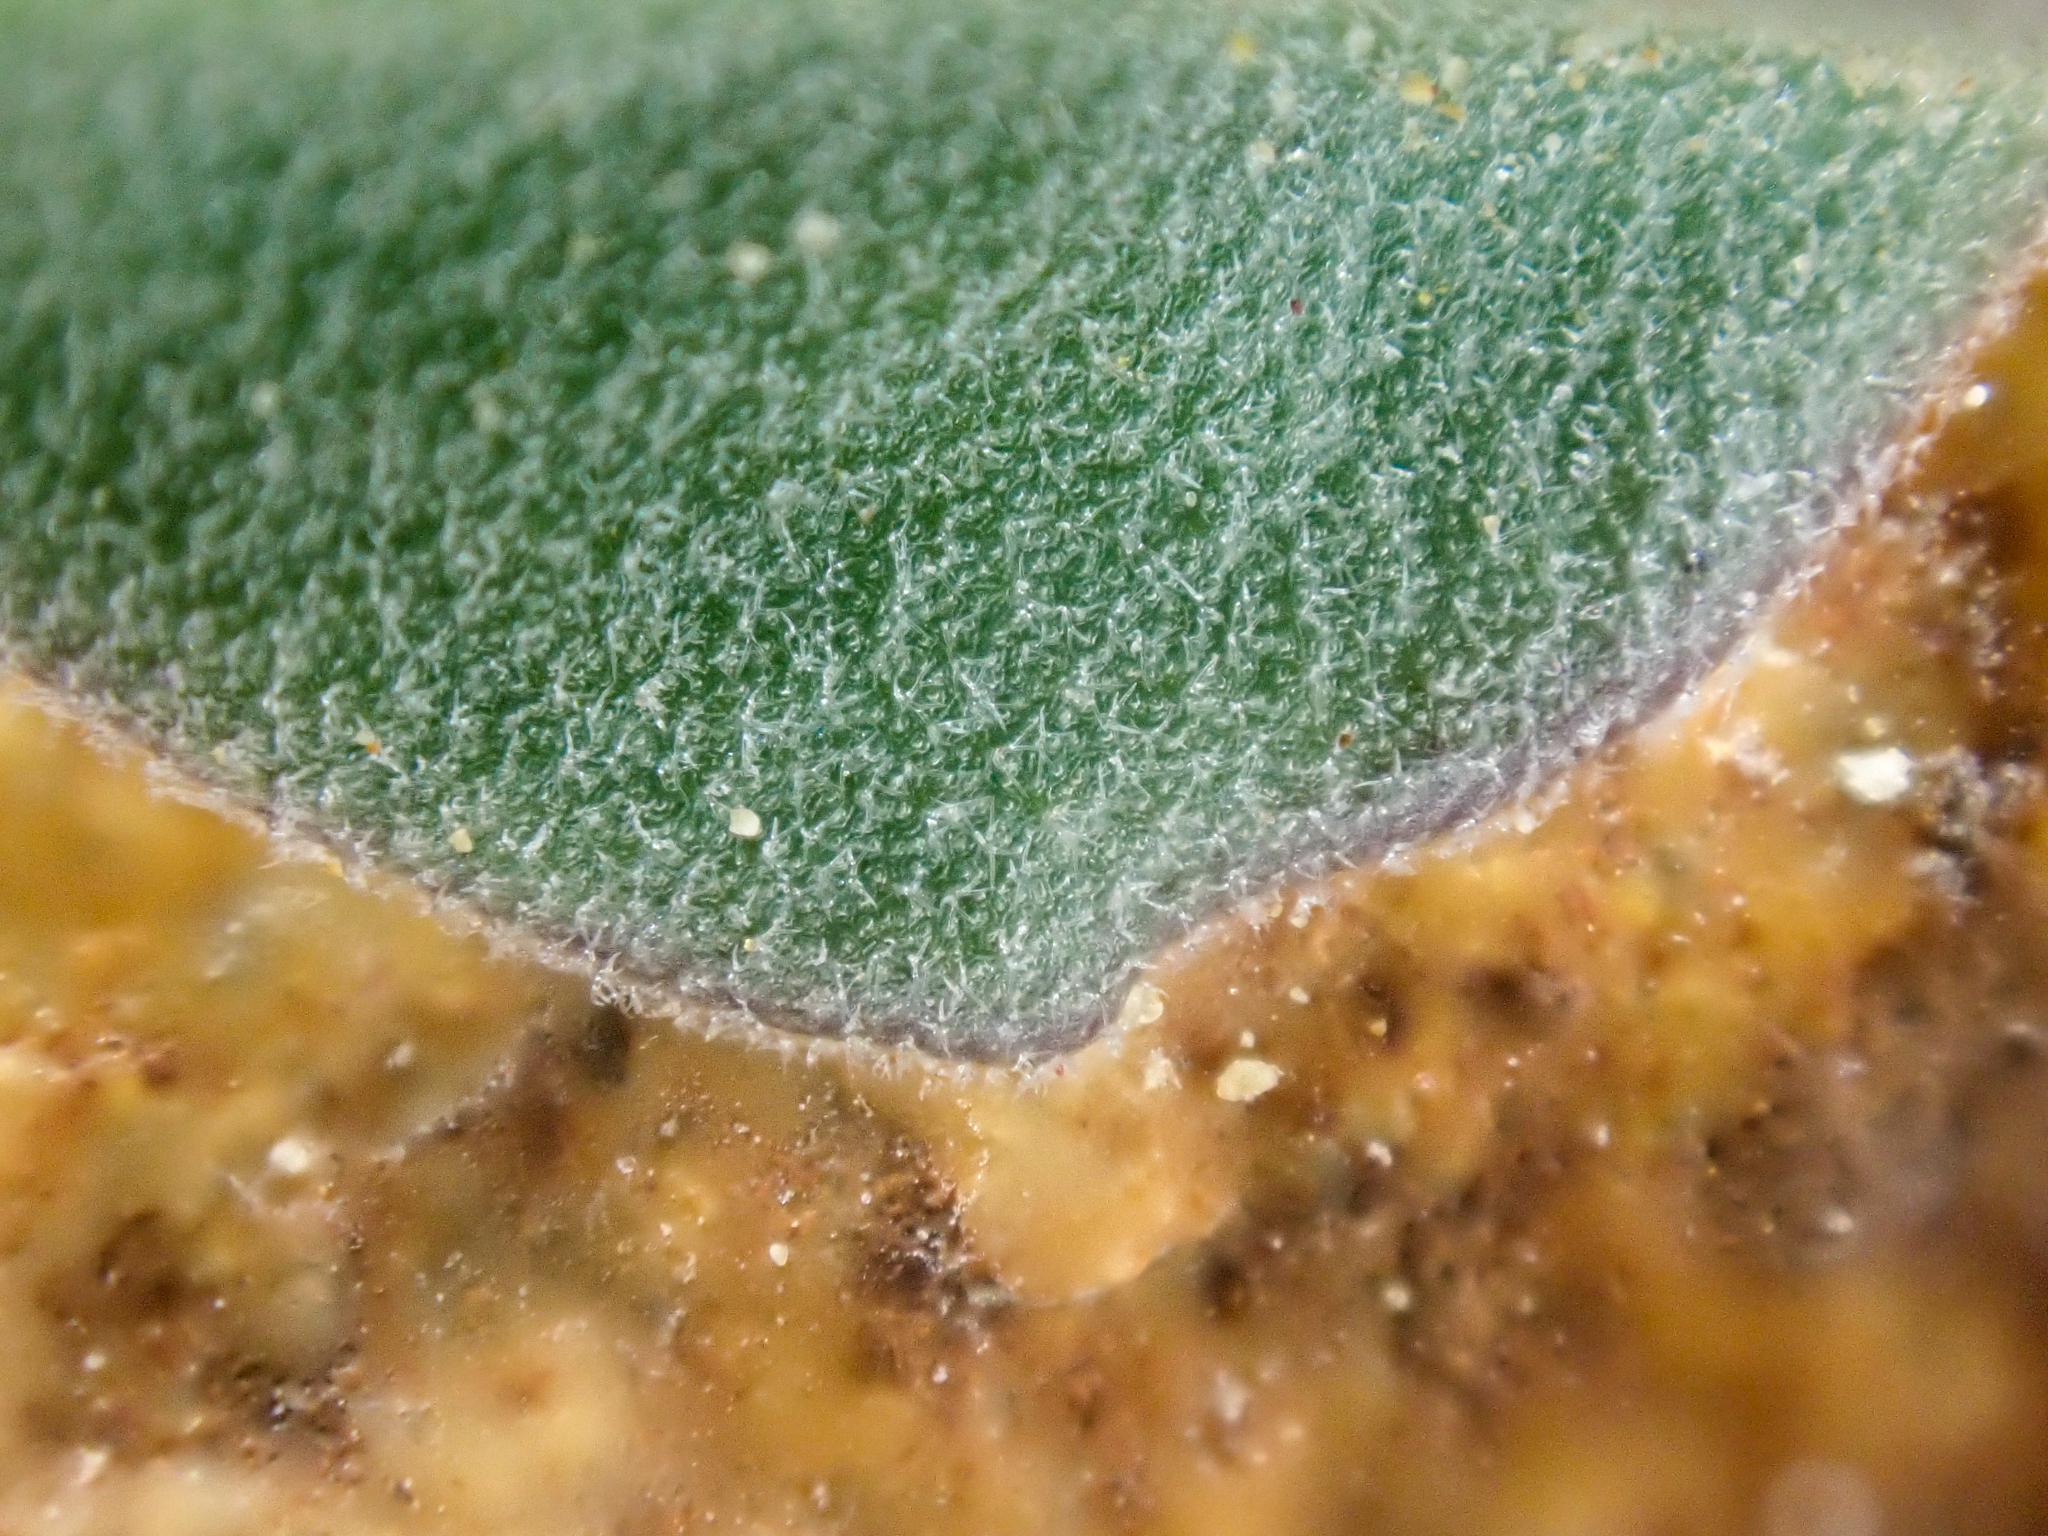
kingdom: Plantae
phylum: Tracheophyta
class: Magnoliopsida
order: Brassicales
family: Brassicaceae
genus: Boechera
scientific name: Boechera lemmonii
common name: Lemmon's rockcress
